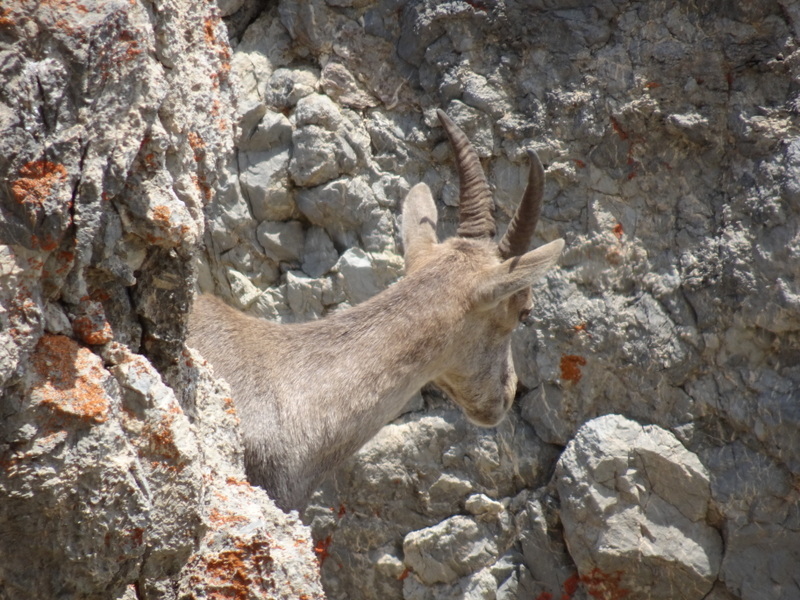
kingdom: Animalia
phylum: Chordata
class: Mammalia
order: Artiodactyla
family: Bovidae
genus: Capra
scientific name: Capra ibex
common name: Alpine ibex
